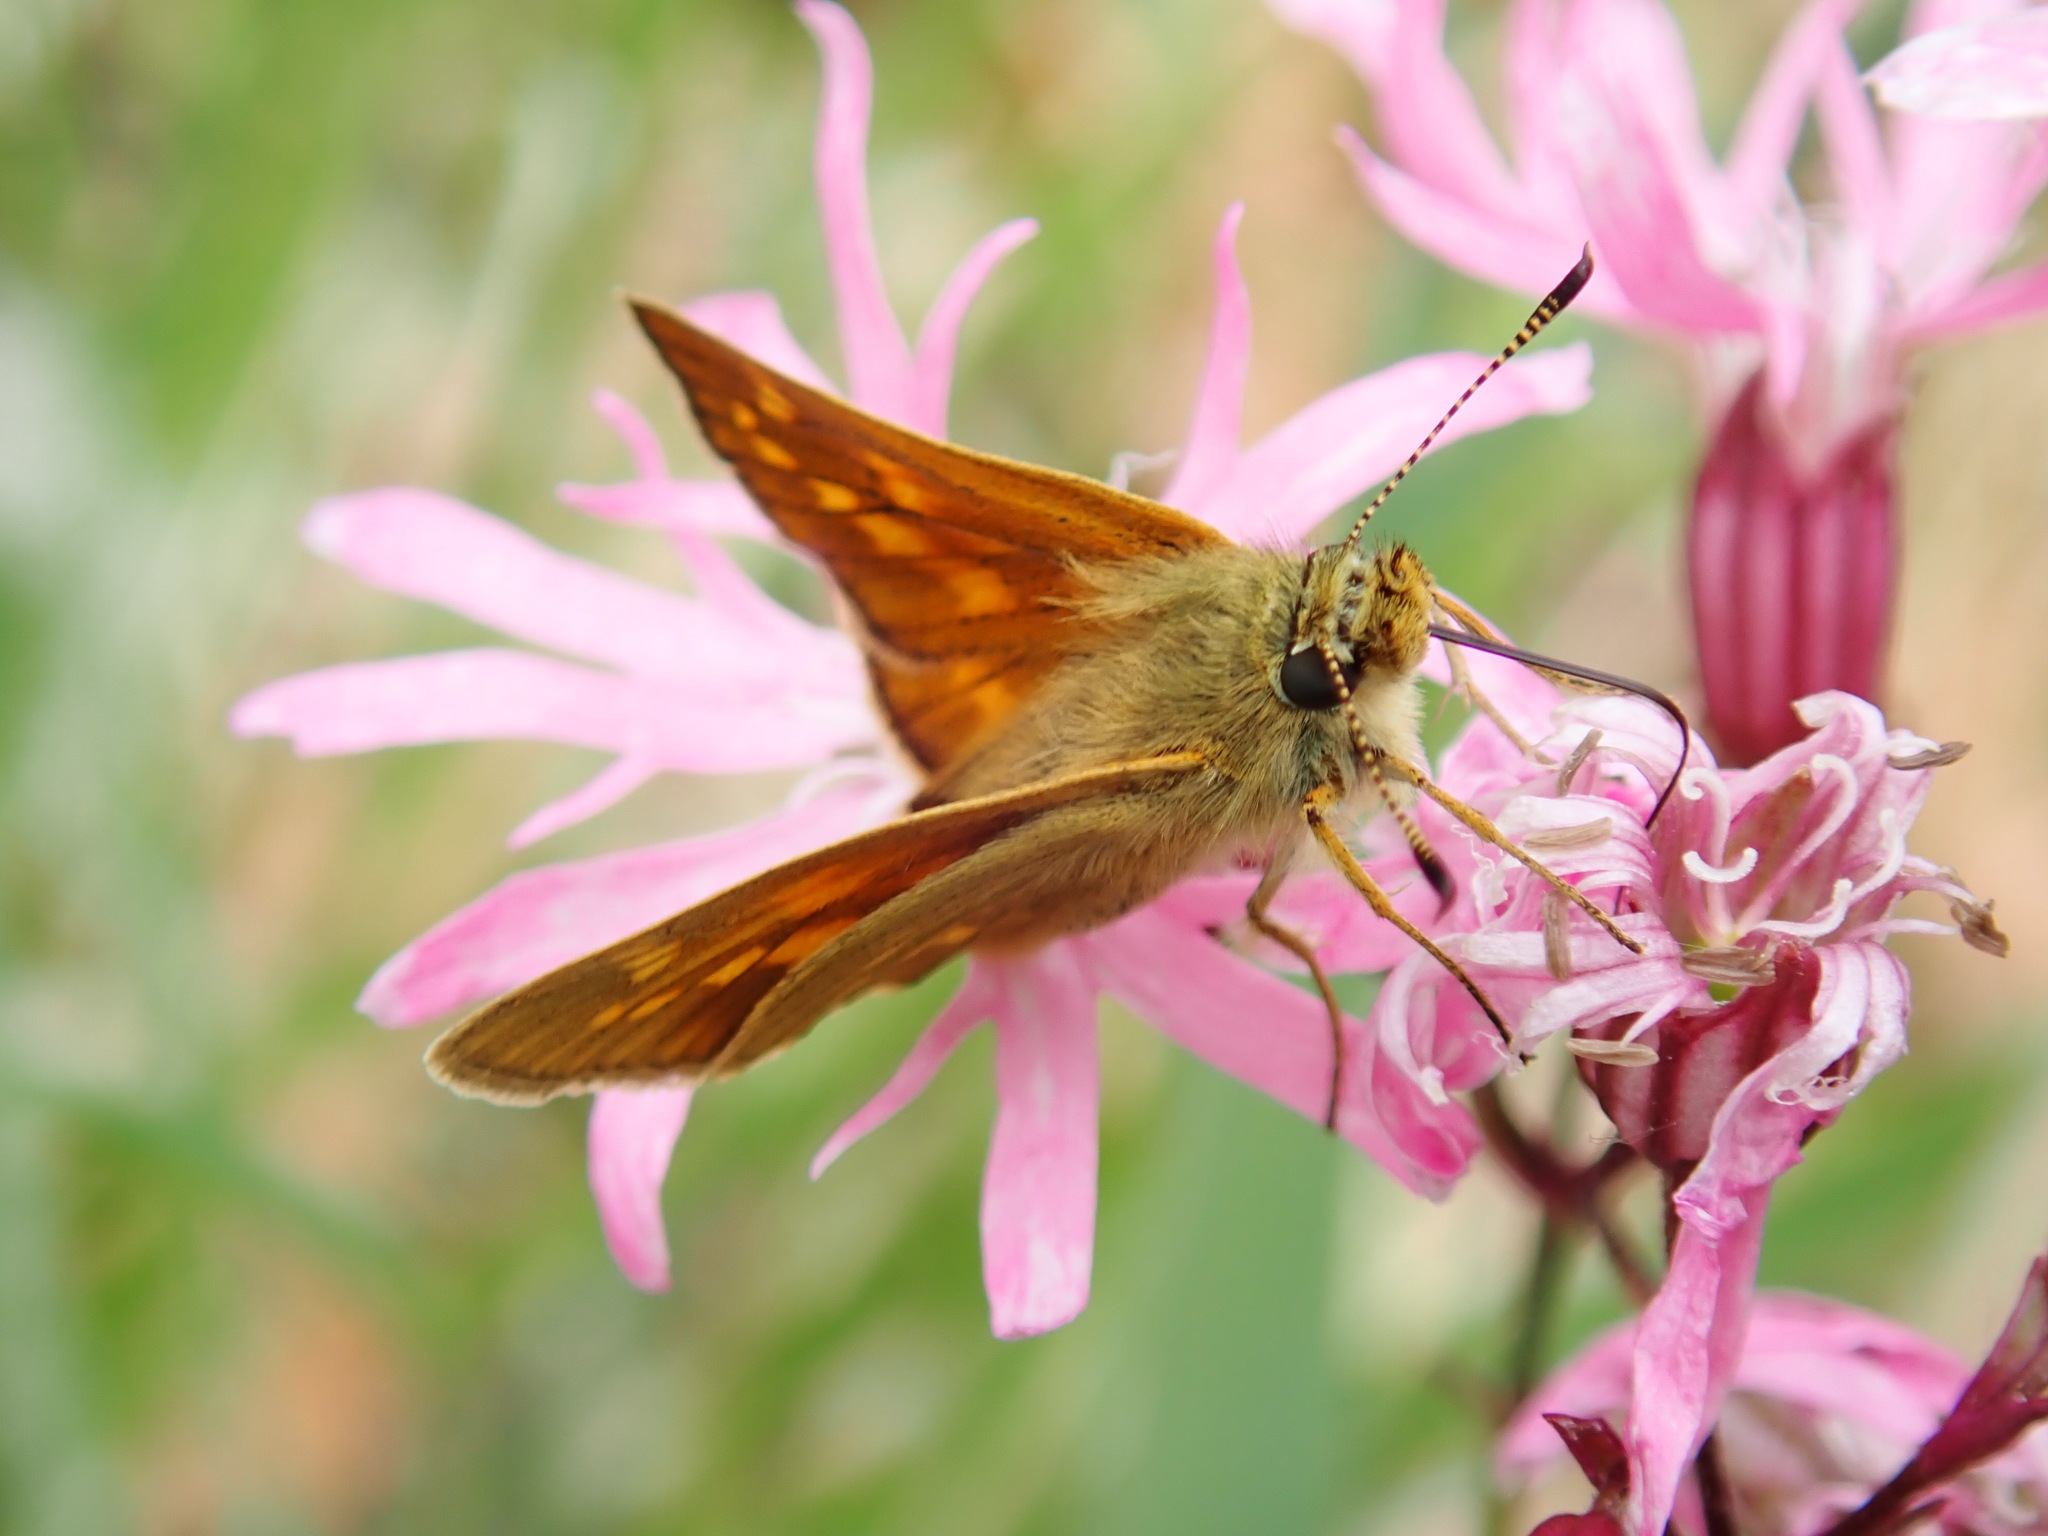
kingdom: Animalia
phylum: Arthropoda
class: Insecta
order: Lepidoptera
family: Hesperiidae
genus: Ochlodes
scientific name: Ochlodes venata
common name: Large skipper
